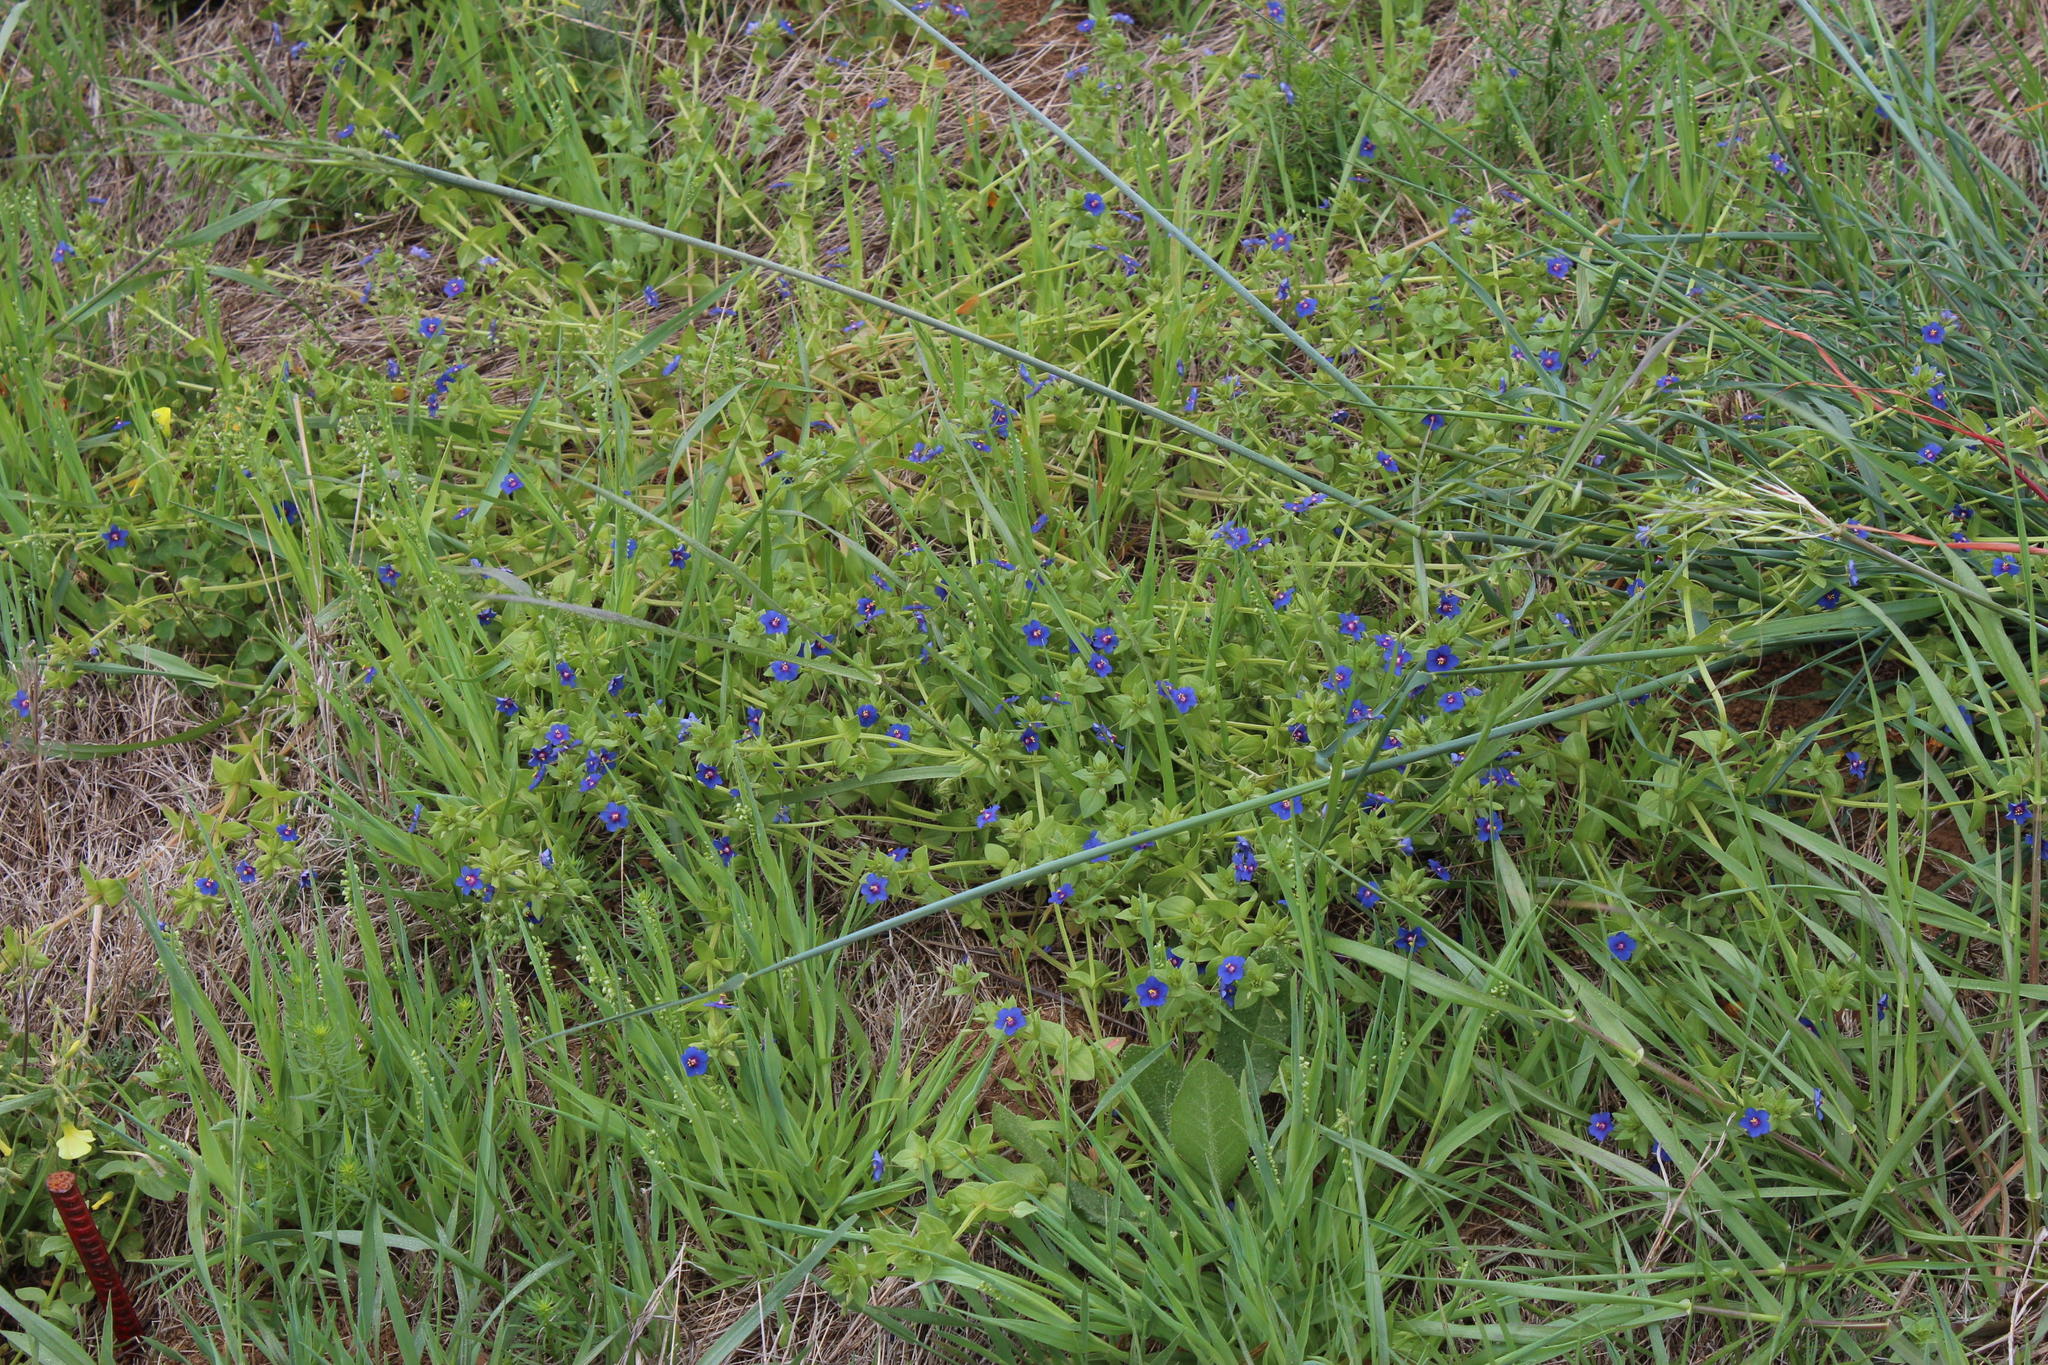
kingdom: Plantae
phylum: Tracheophyta
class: Magnoliopsida
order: Ericales
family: Primulaceae
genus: Lysimachia
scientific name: Lysimachia loeflingii
